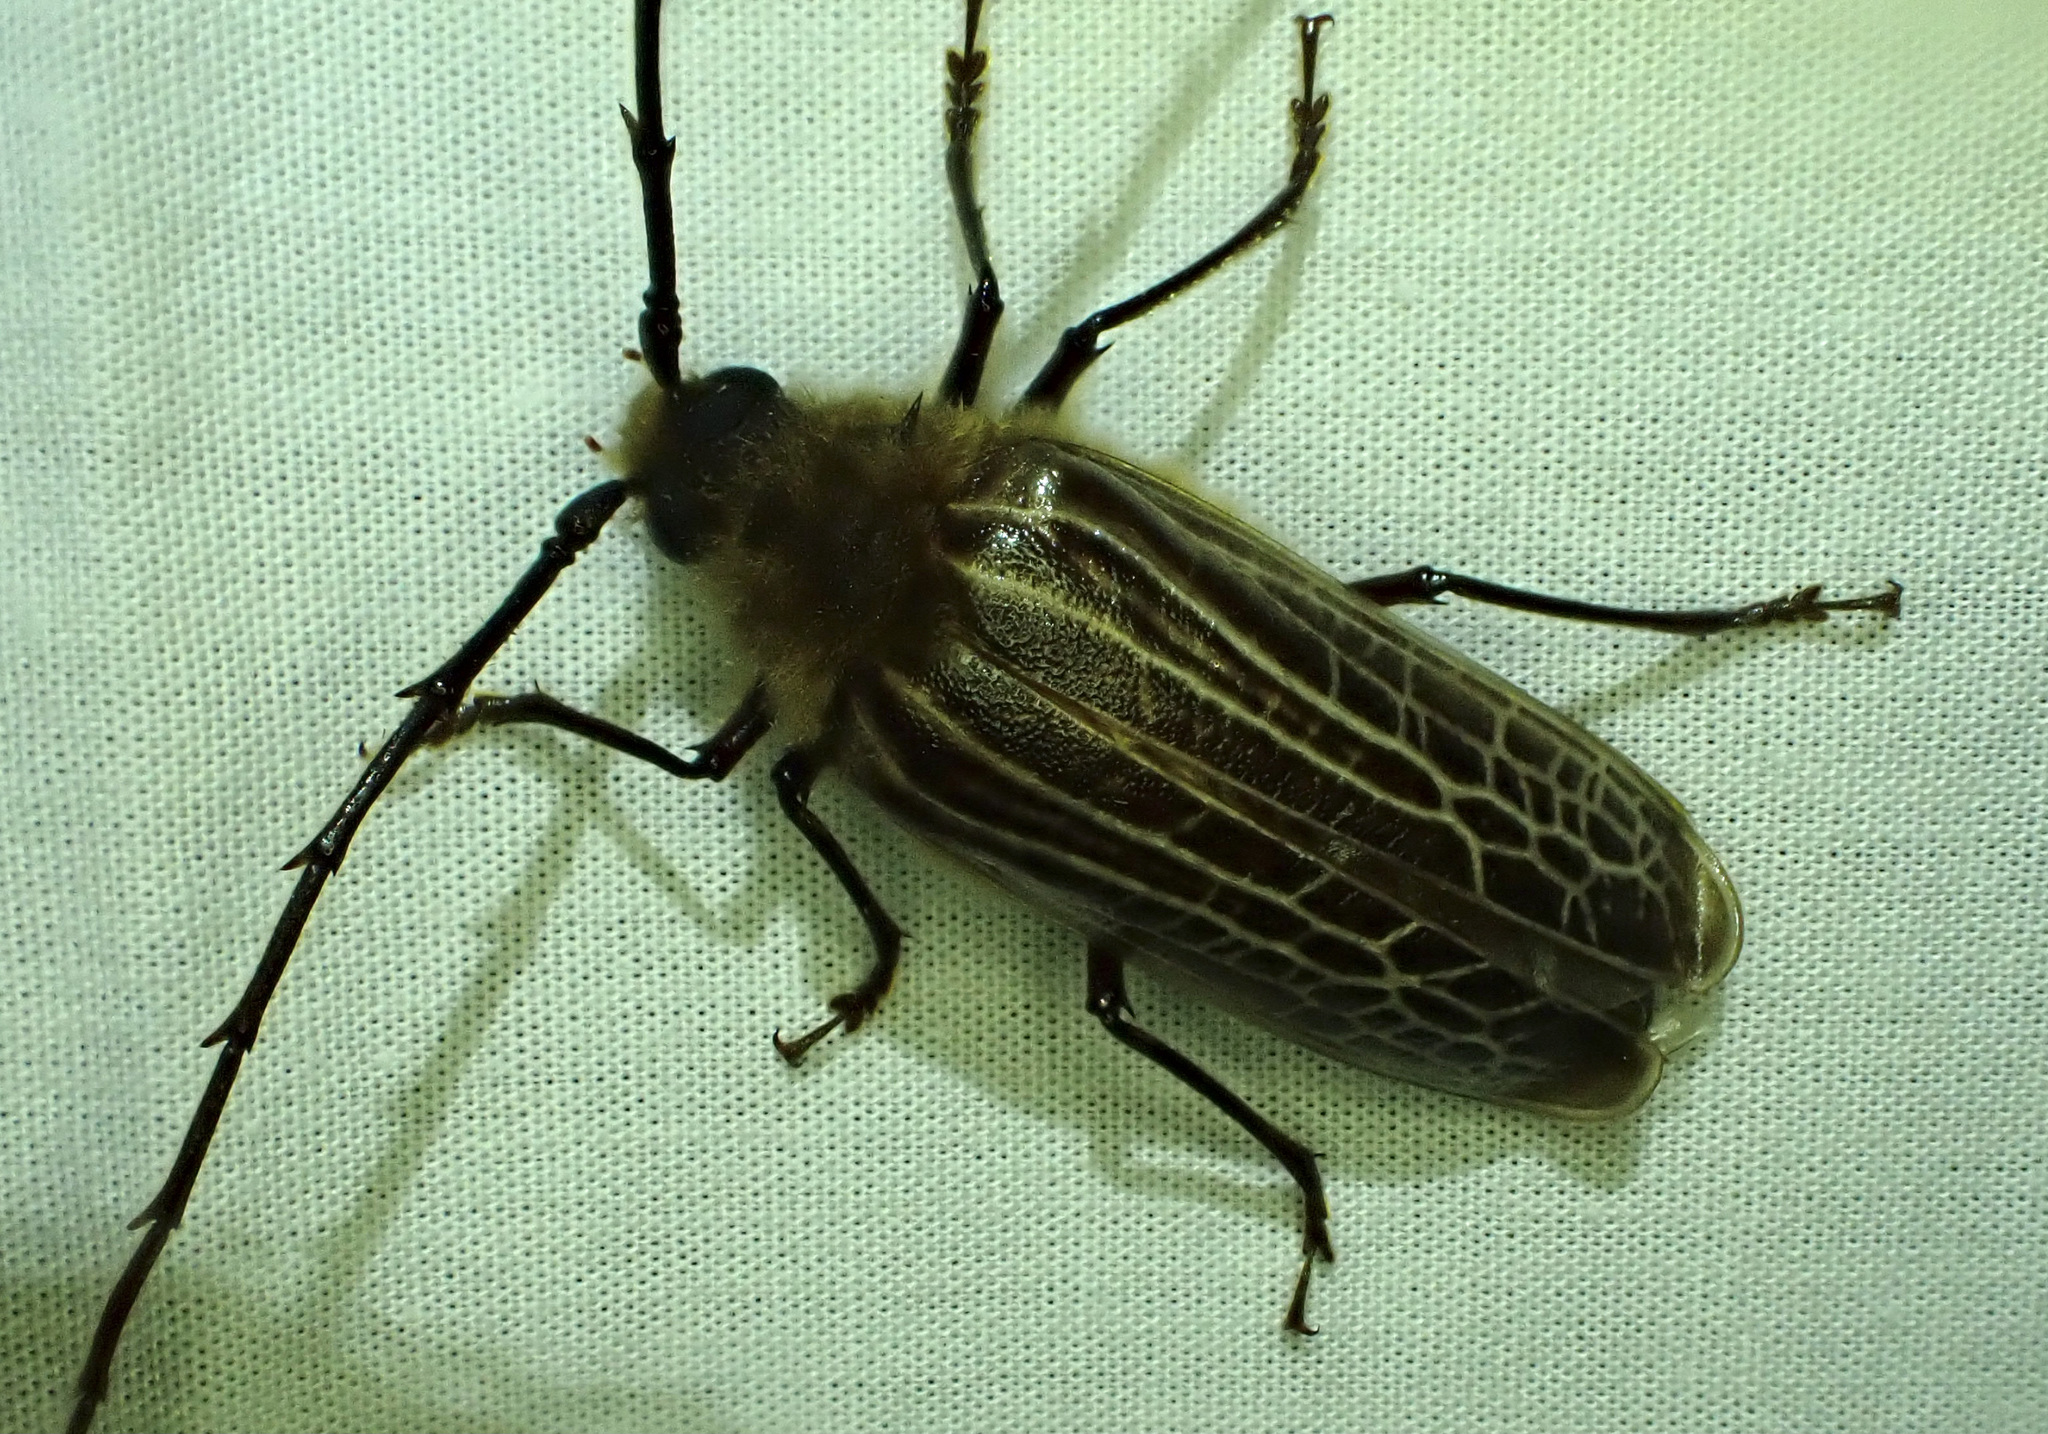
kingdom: Animalia
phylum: Arthropoda
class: Insecta
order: Coleoptera
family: Cerambycidae
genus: Prionoplus
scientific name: Prionoplus reticularis
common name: Huhu beetle
